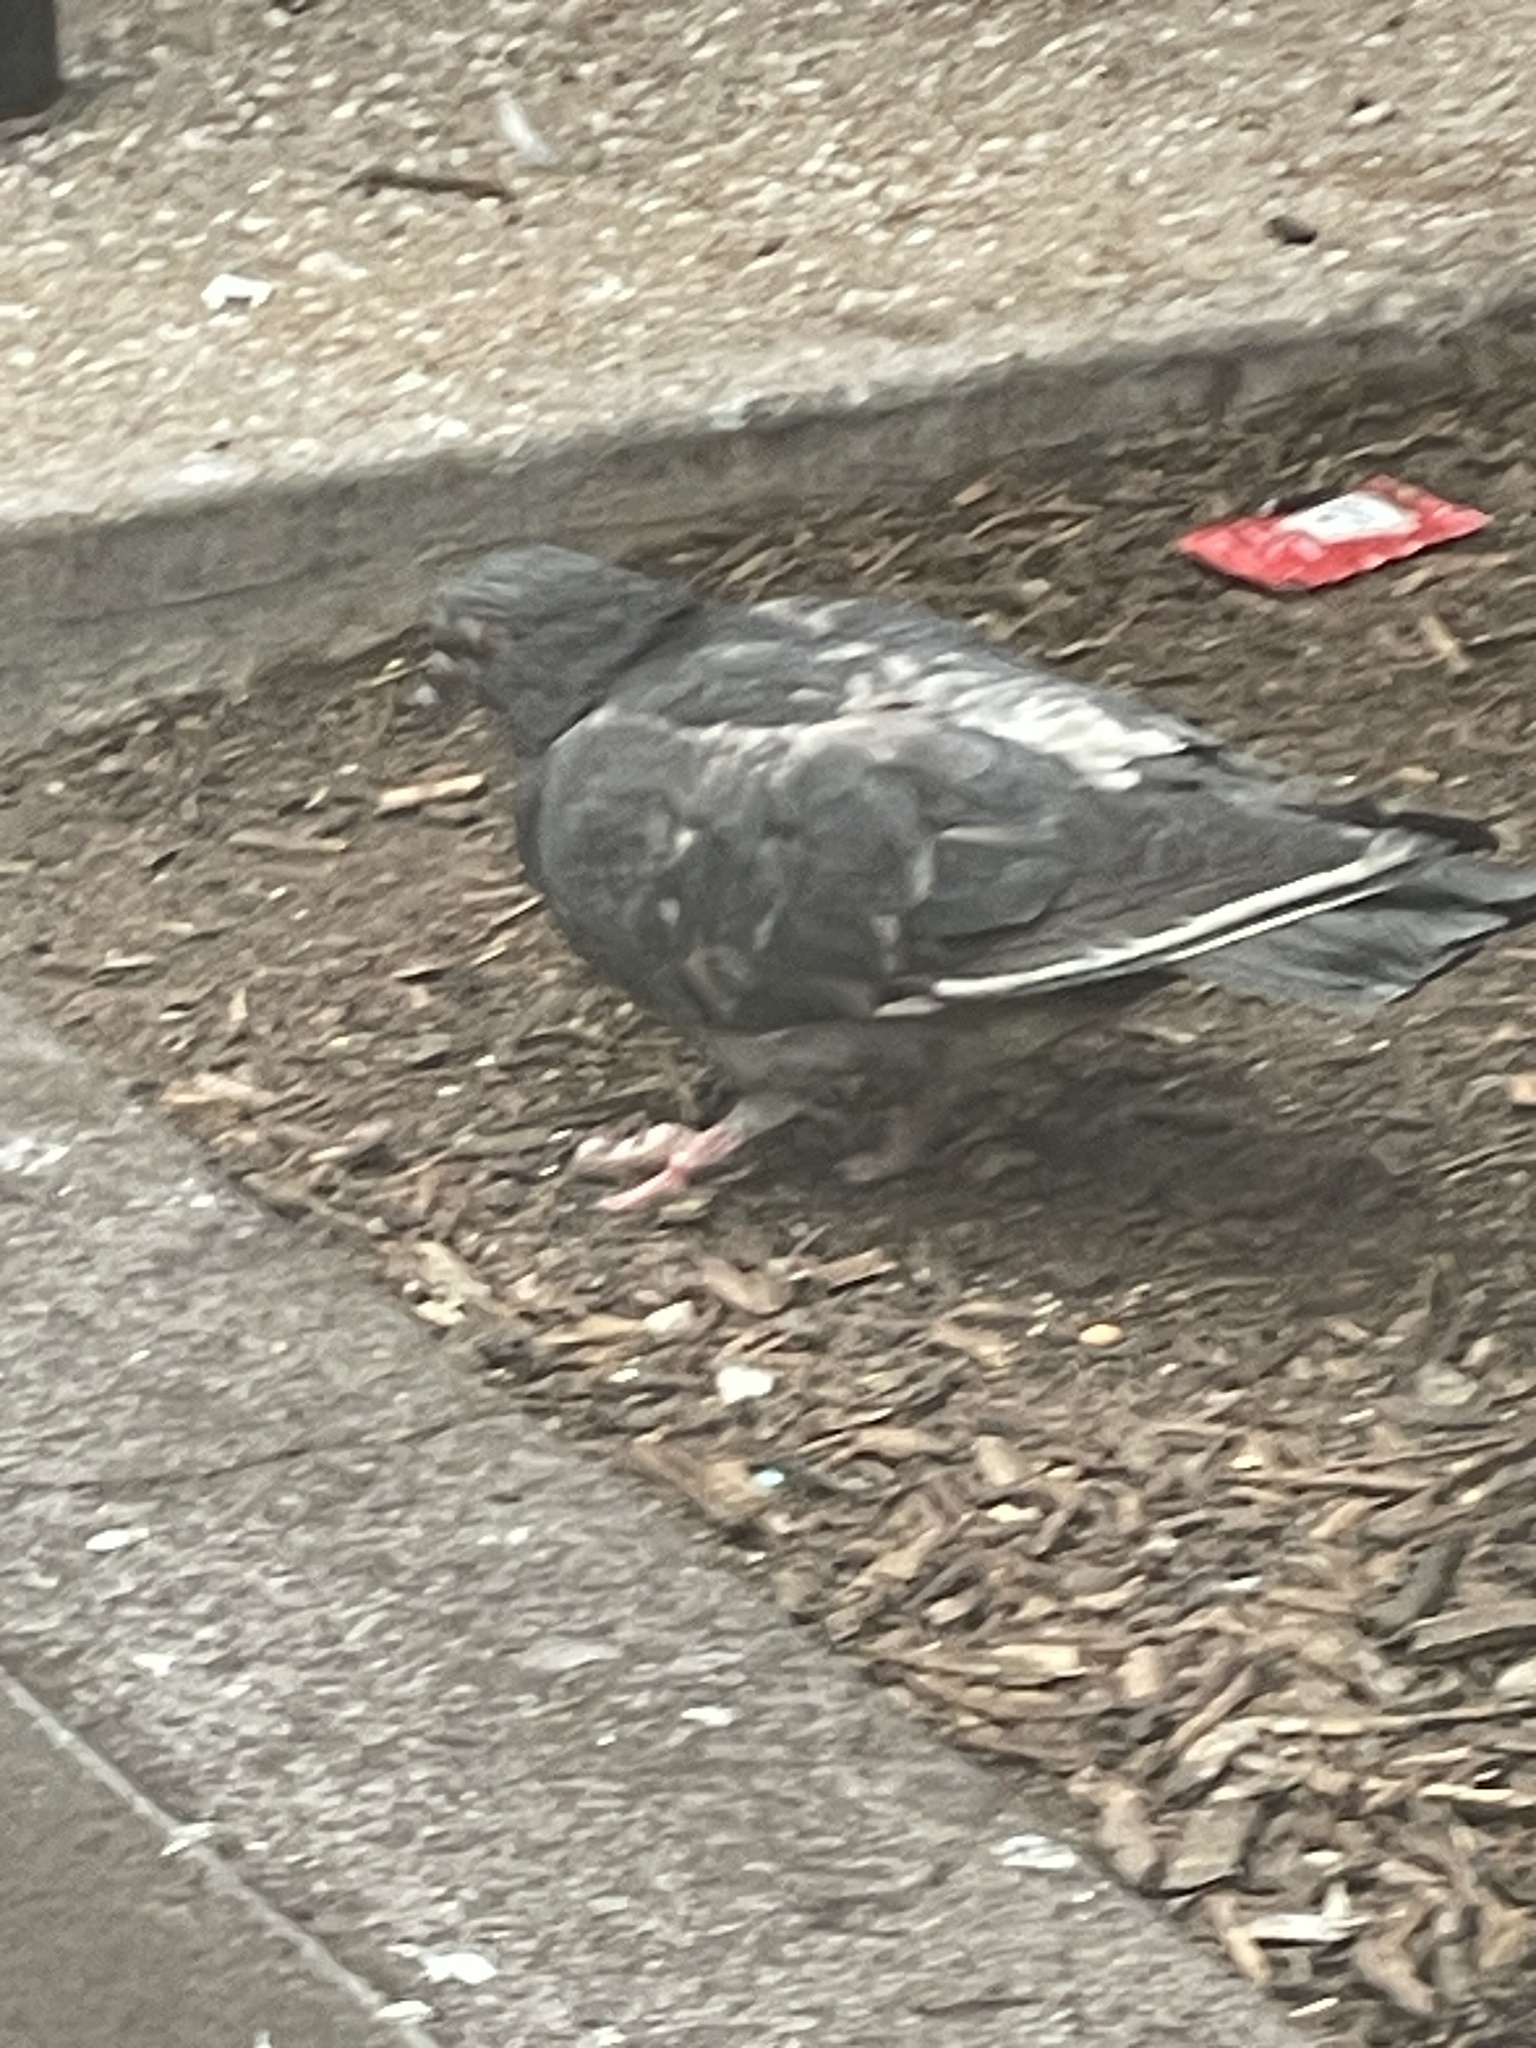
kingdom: Animalia
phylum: Chordata
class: Aves
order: Columbiformes
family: Columbidae
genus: Columba
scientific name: Columba livia
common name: Rock pigeon
